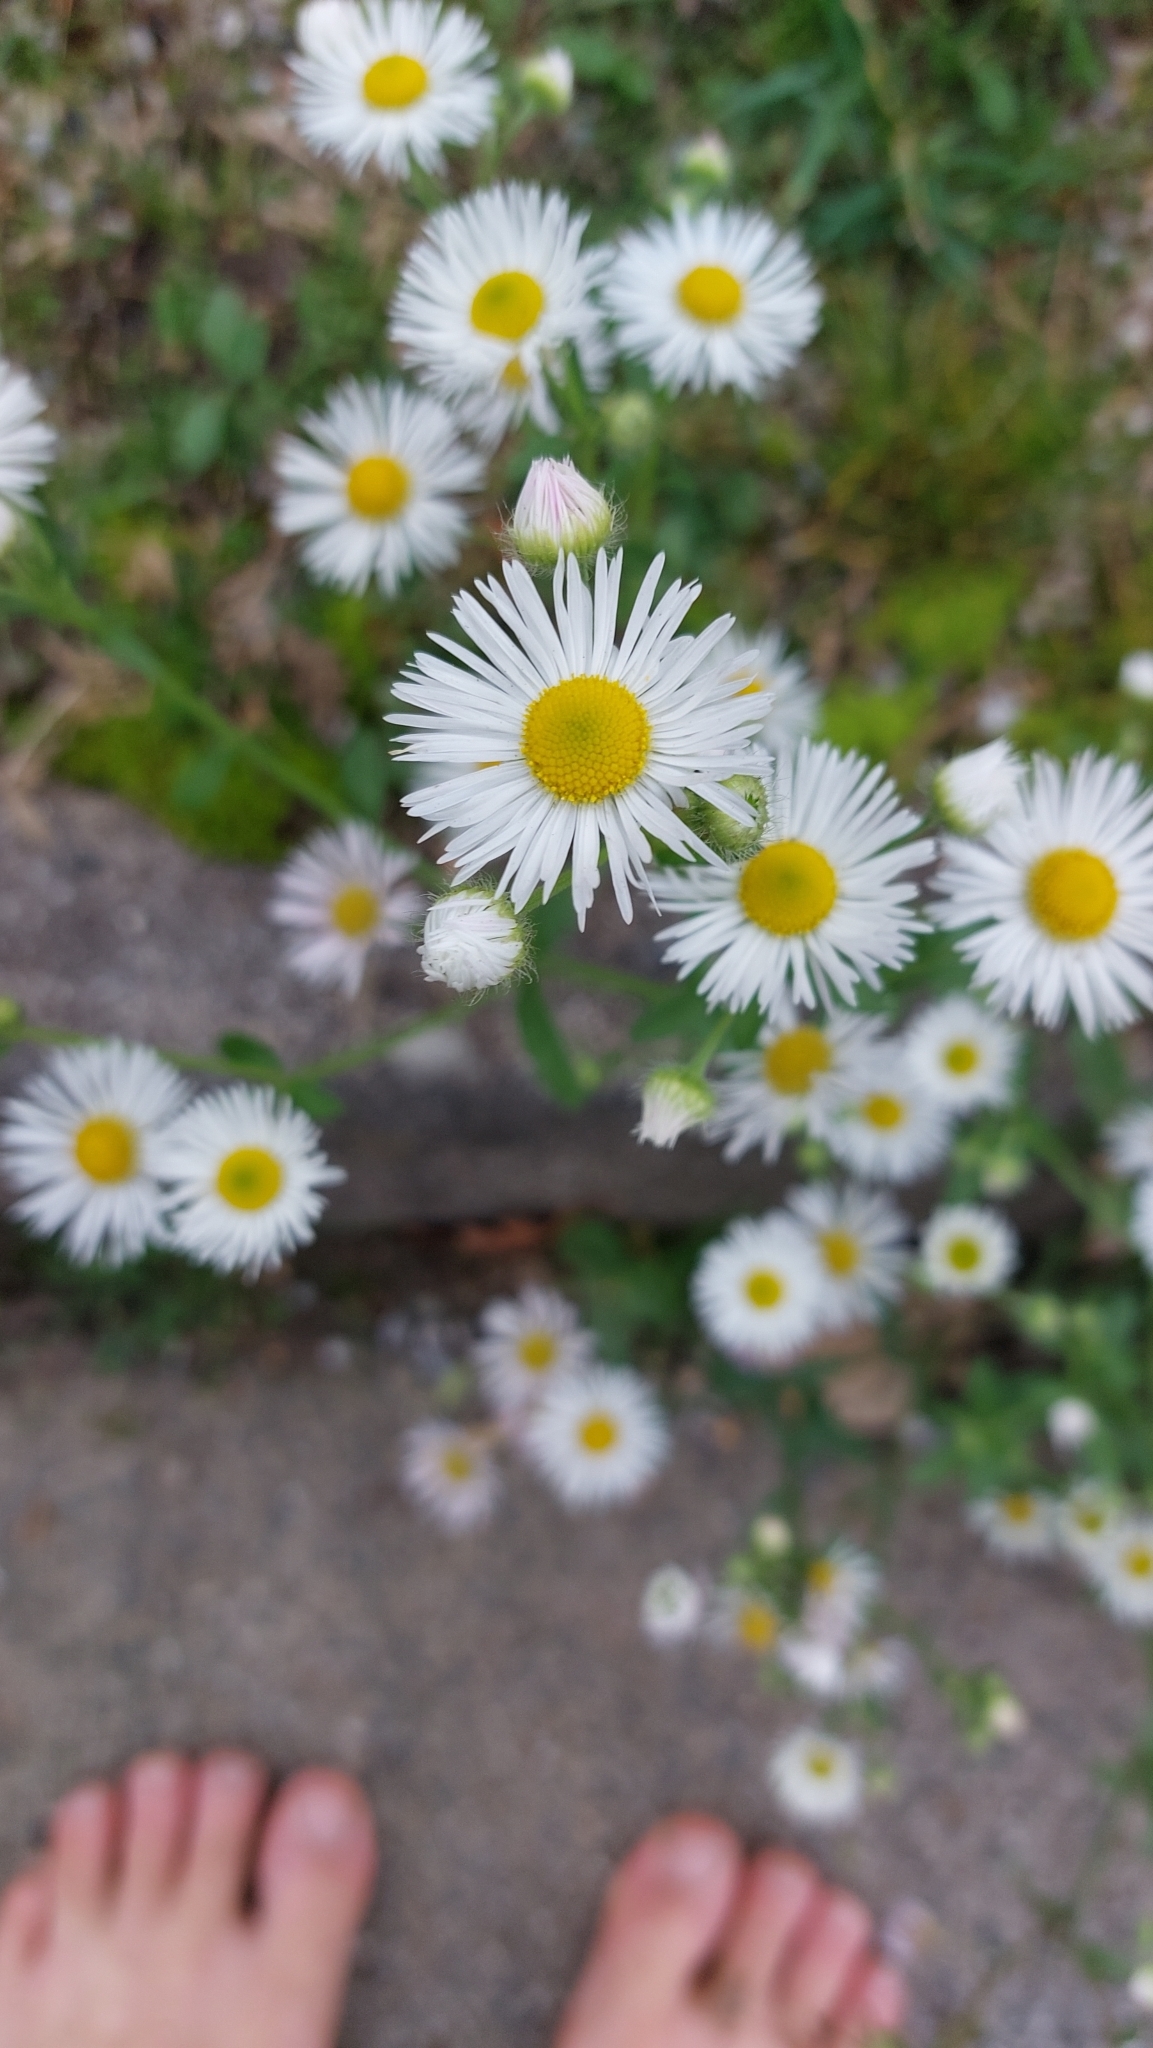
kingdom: Plantae
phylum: Tracheophyta
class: Magnoliopsida
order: Asterales
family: Asteraceae
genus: Erigeron
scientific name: Erigeron annuus
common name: Tall fleabane
